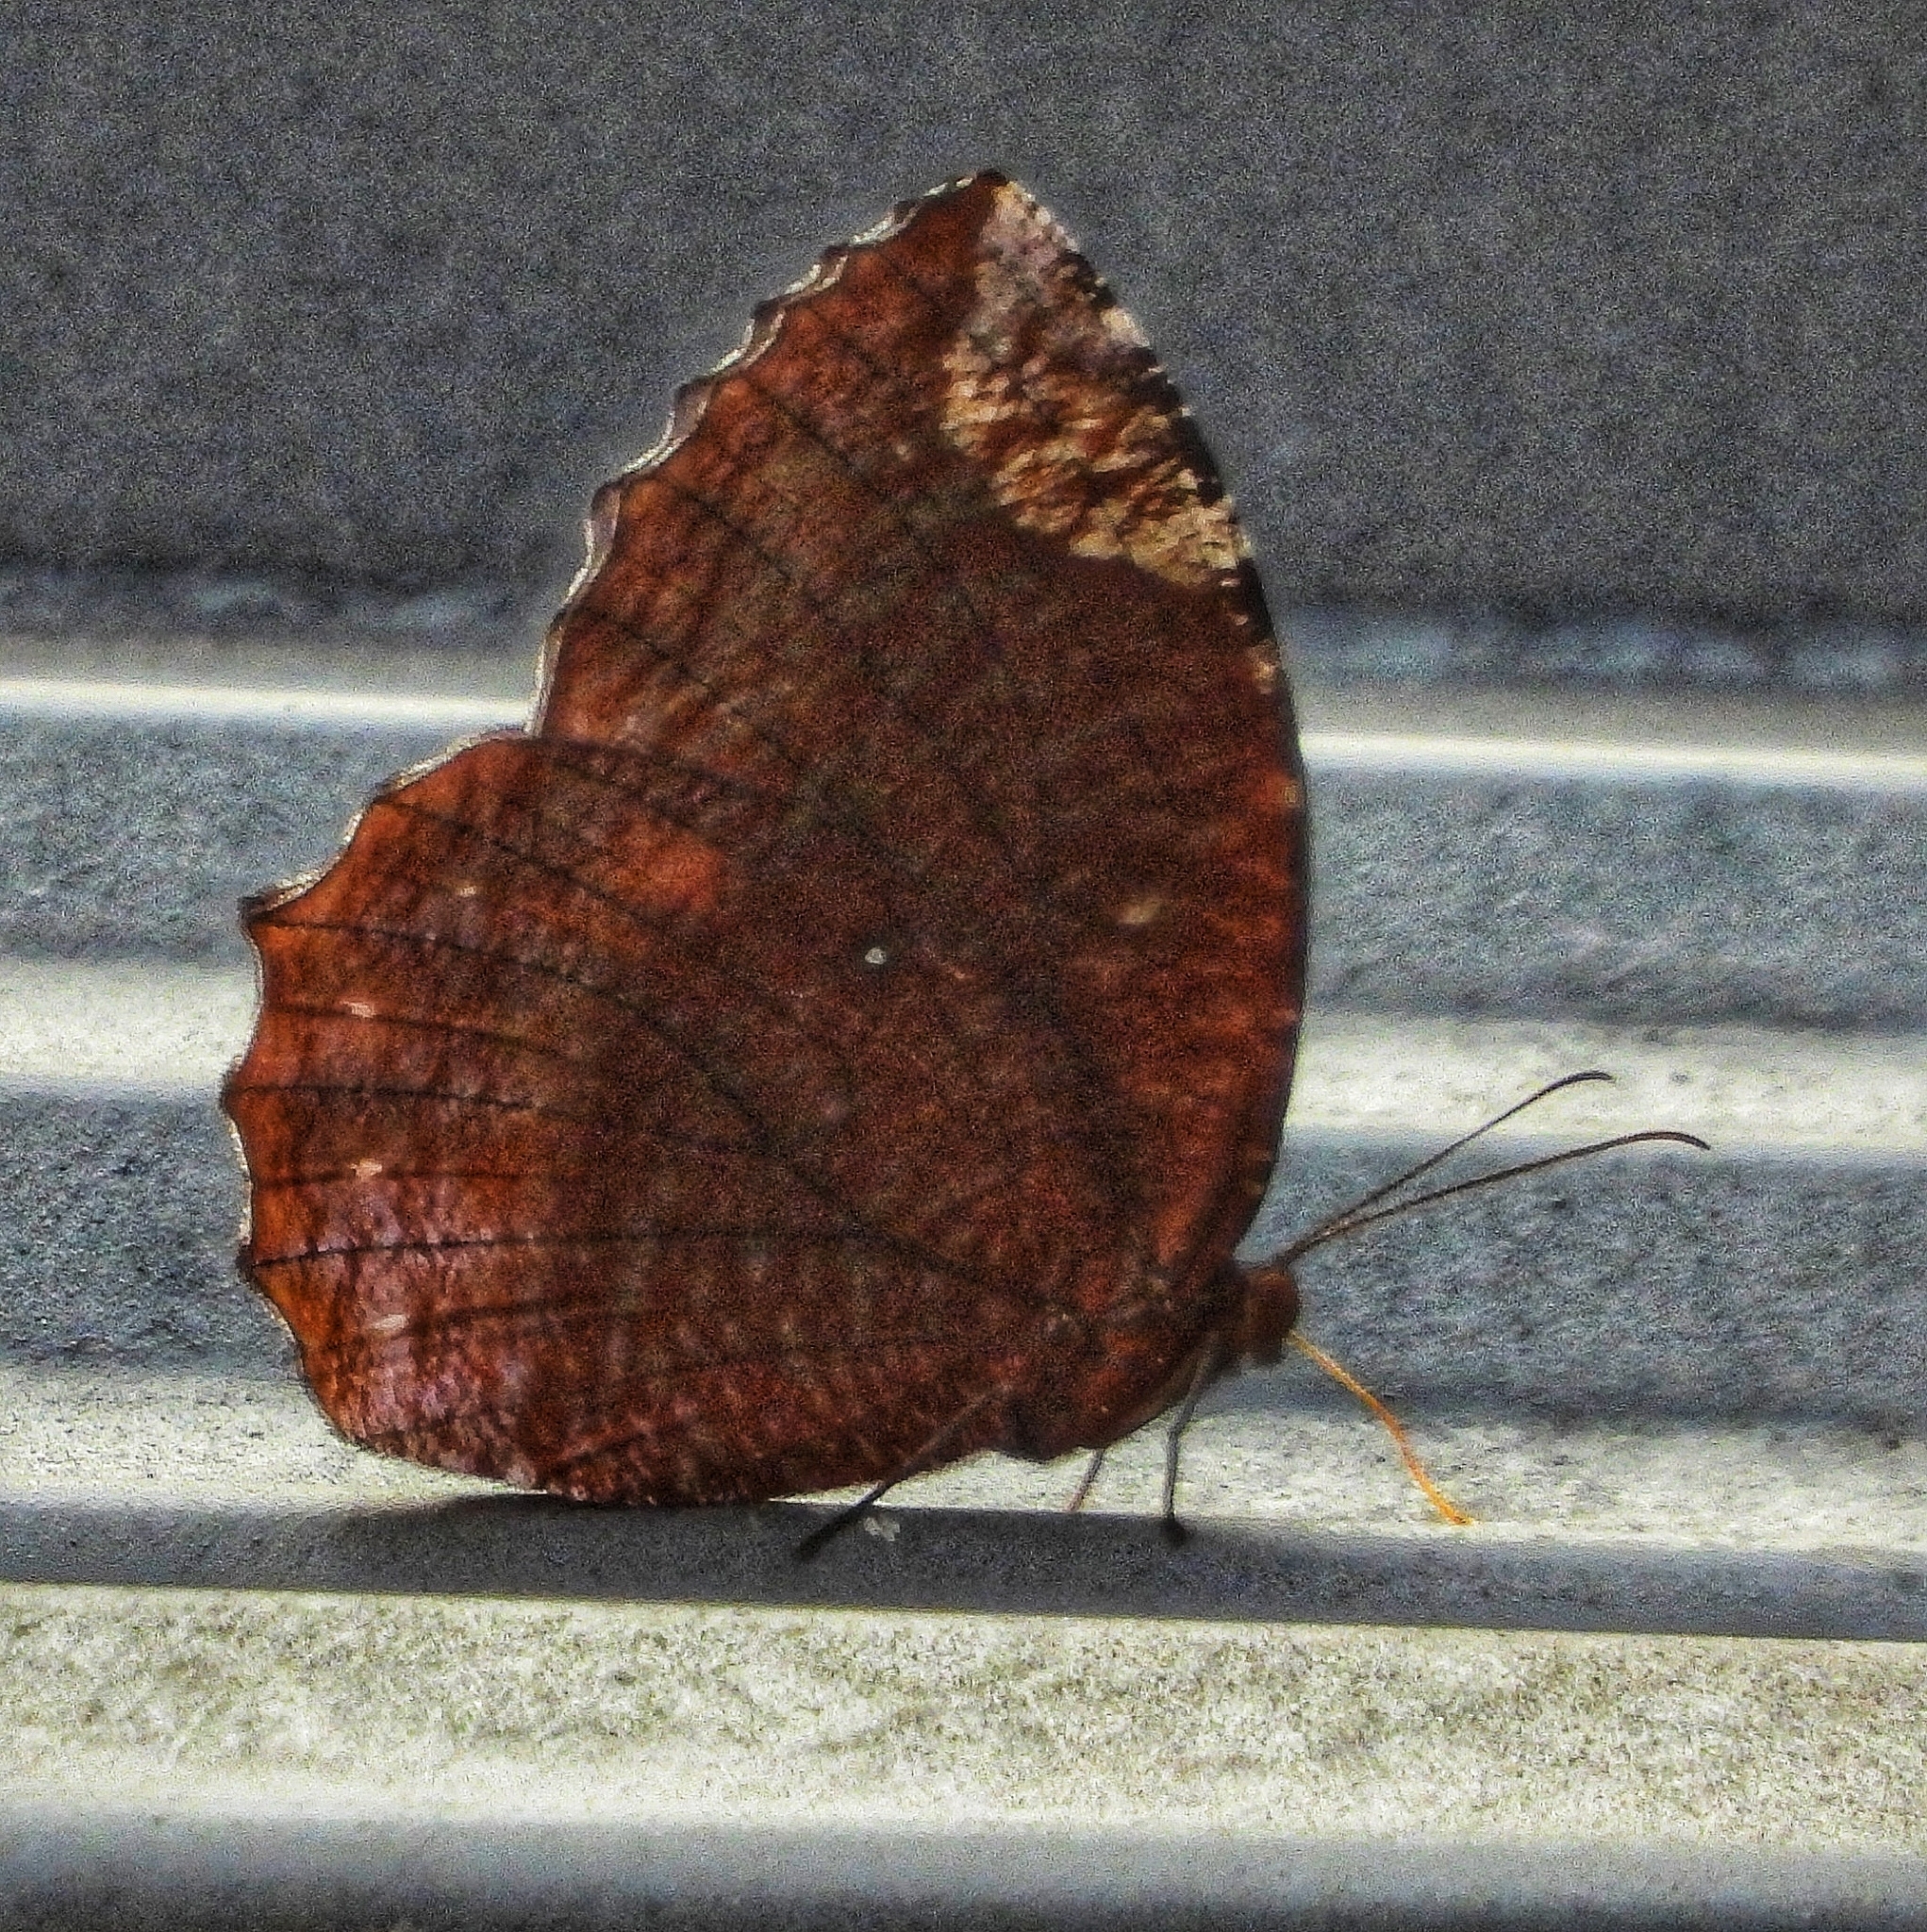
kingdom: Animalia
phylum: Arthropoda
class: Insecta
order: Lepidoptera
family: Nymphalidae
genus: Elymnias
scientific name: Elymnias hypermnestra
